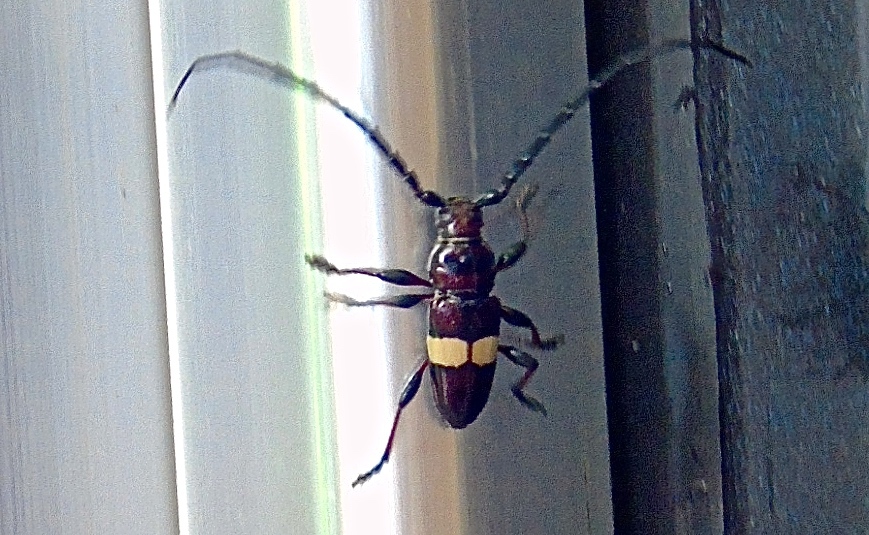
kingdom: Animalia
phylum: Arthropoda
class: Insecta
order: Coleoptera
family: Cerambycidae
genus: Lissonotus
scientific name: Lissonotus flavocinctus
